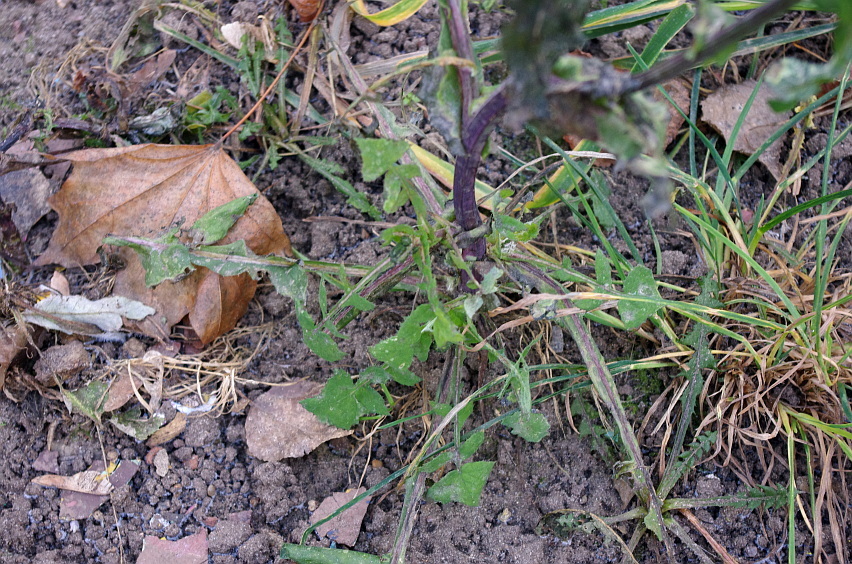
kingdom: Plantae
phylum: Tracheophyta
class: Magnoliopsida
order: Asterales
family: Asteraceae
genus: Sonchus
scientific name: Sonchus oleraceus
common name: Common sowthistle
